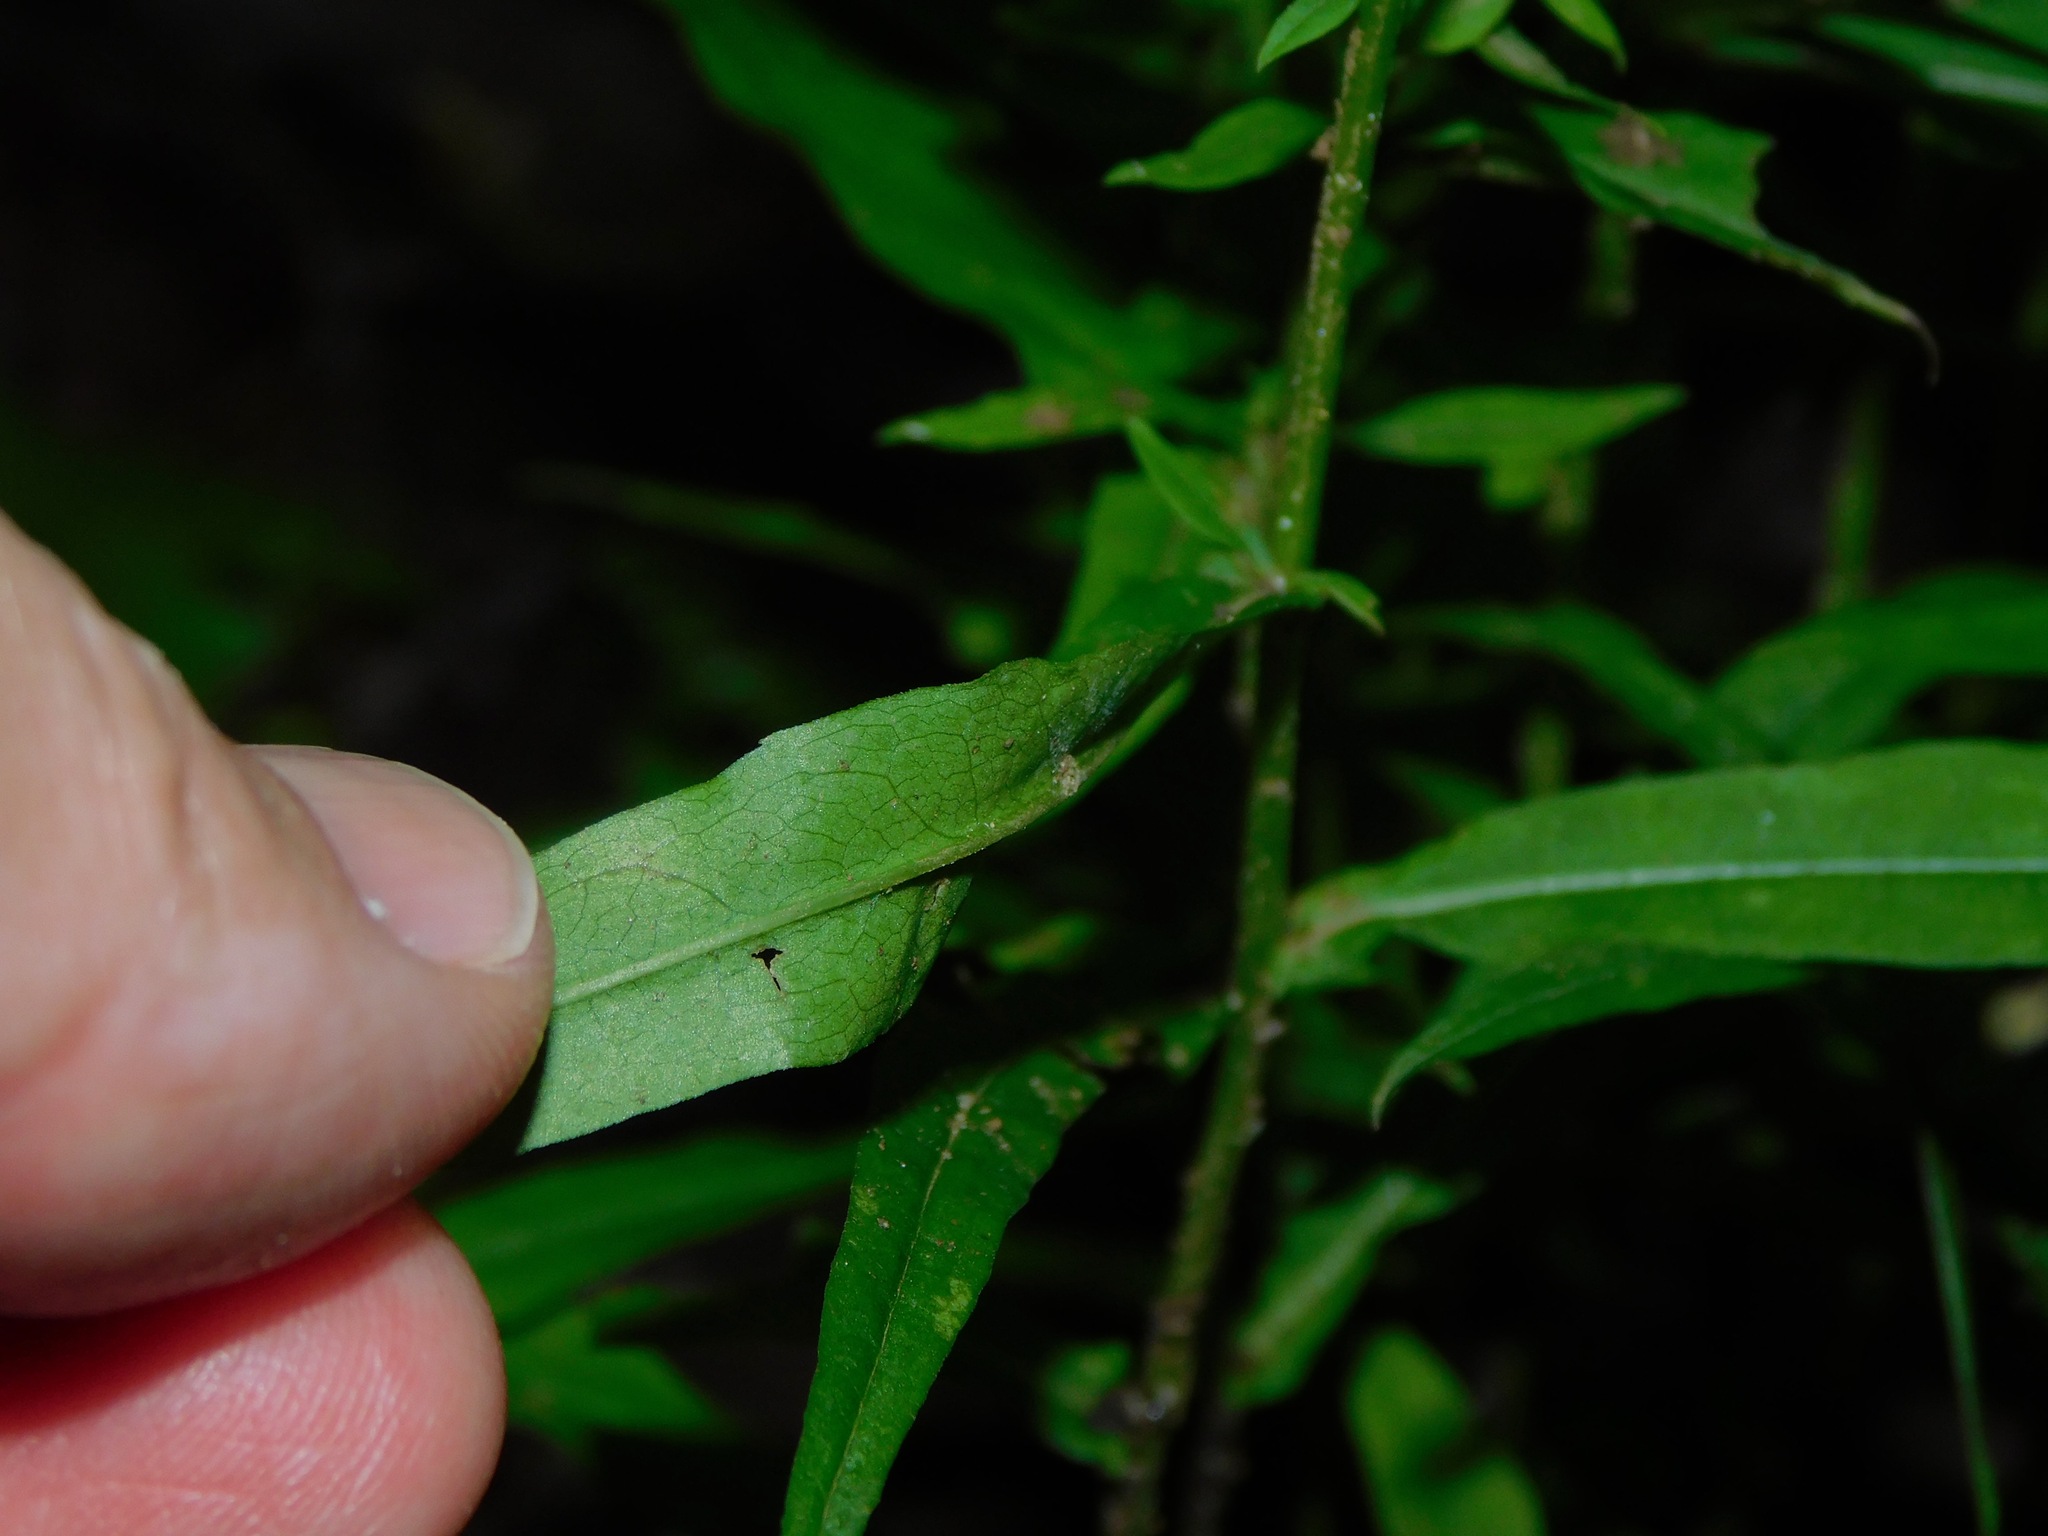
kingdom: Plantae
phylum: Tracheophyta
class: Magnoliopsida
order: Asterales
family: Asteraceae
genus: Symphyotrichum
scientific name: Symphyotrichum lateriflorum
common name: Calico aster
